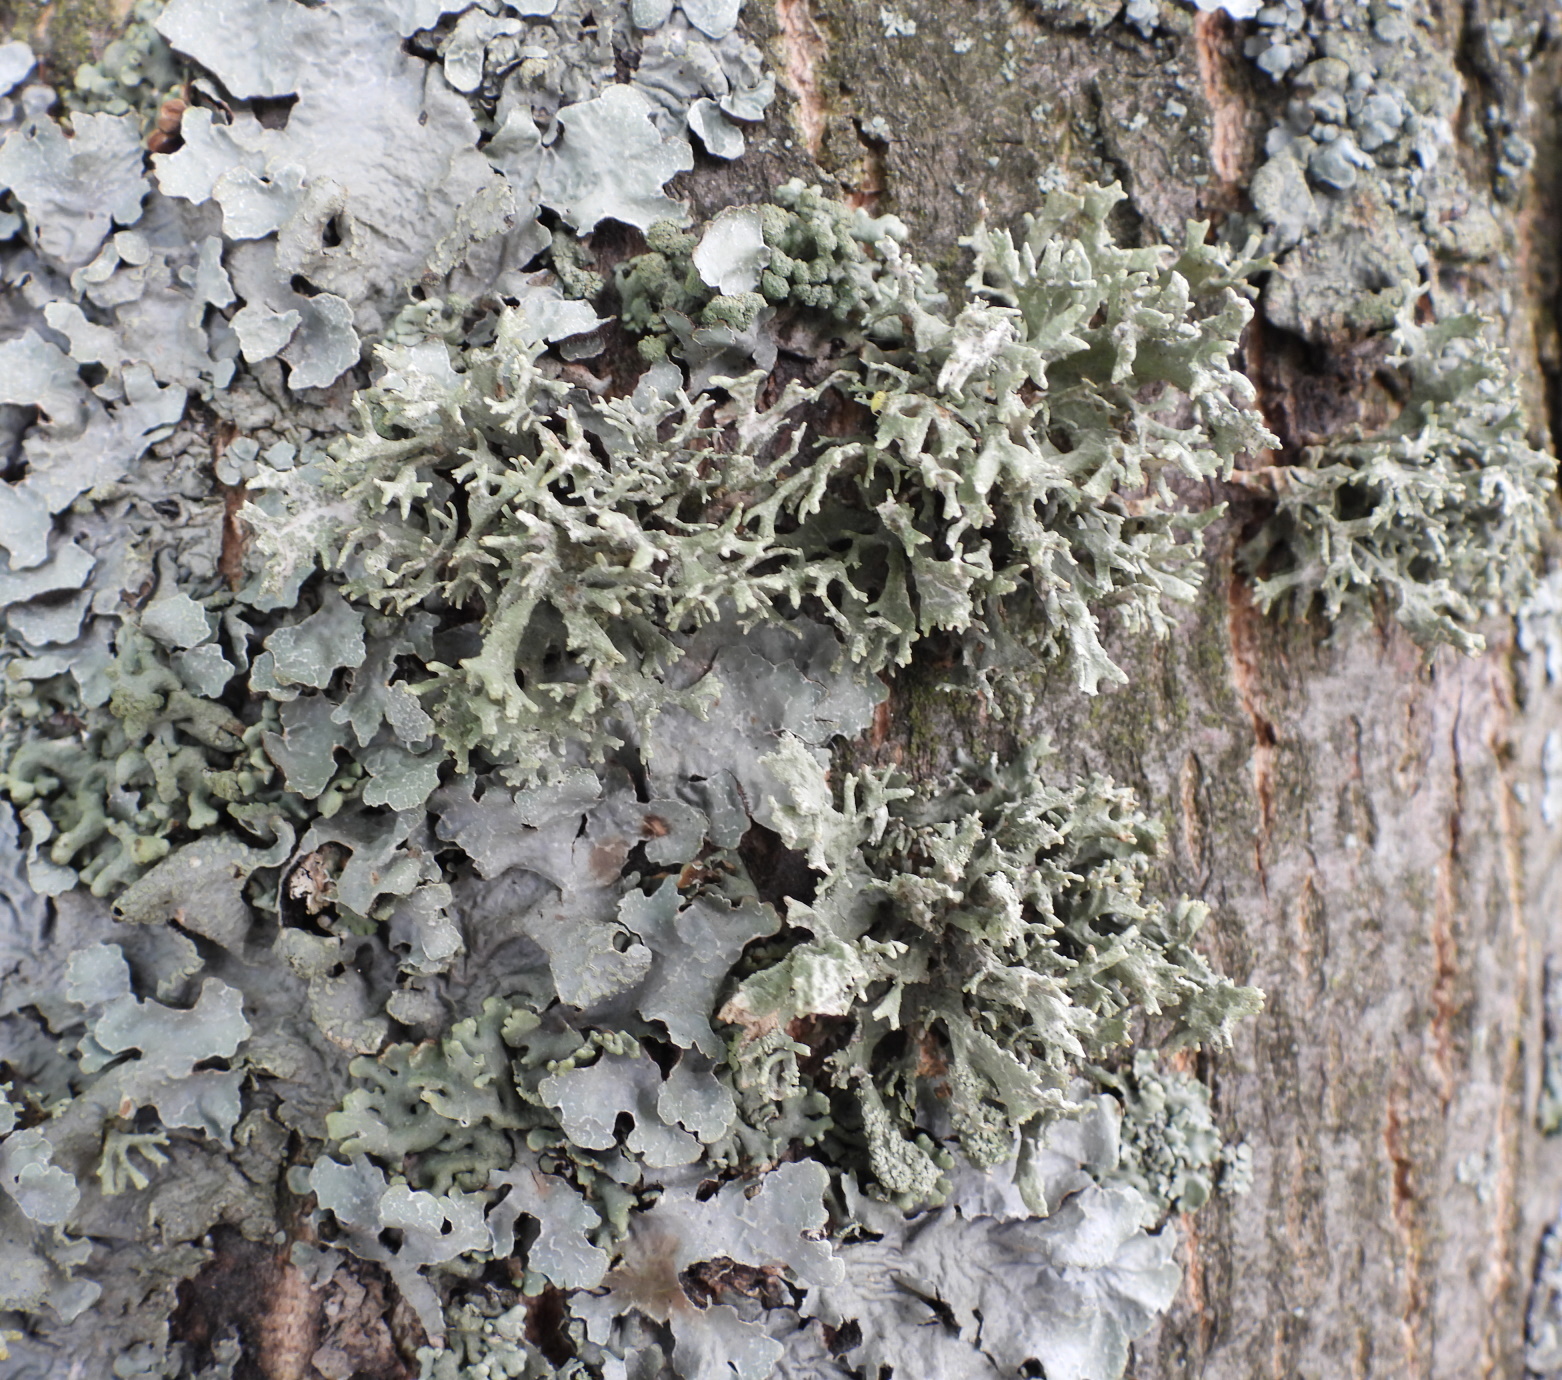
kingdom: Fungi
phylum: Ascomycota
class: Lecanoromycetes
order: Lecanorales
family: Parmeliaceae
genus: Evernia
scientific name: Evernia prunastri
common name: Oak moss
